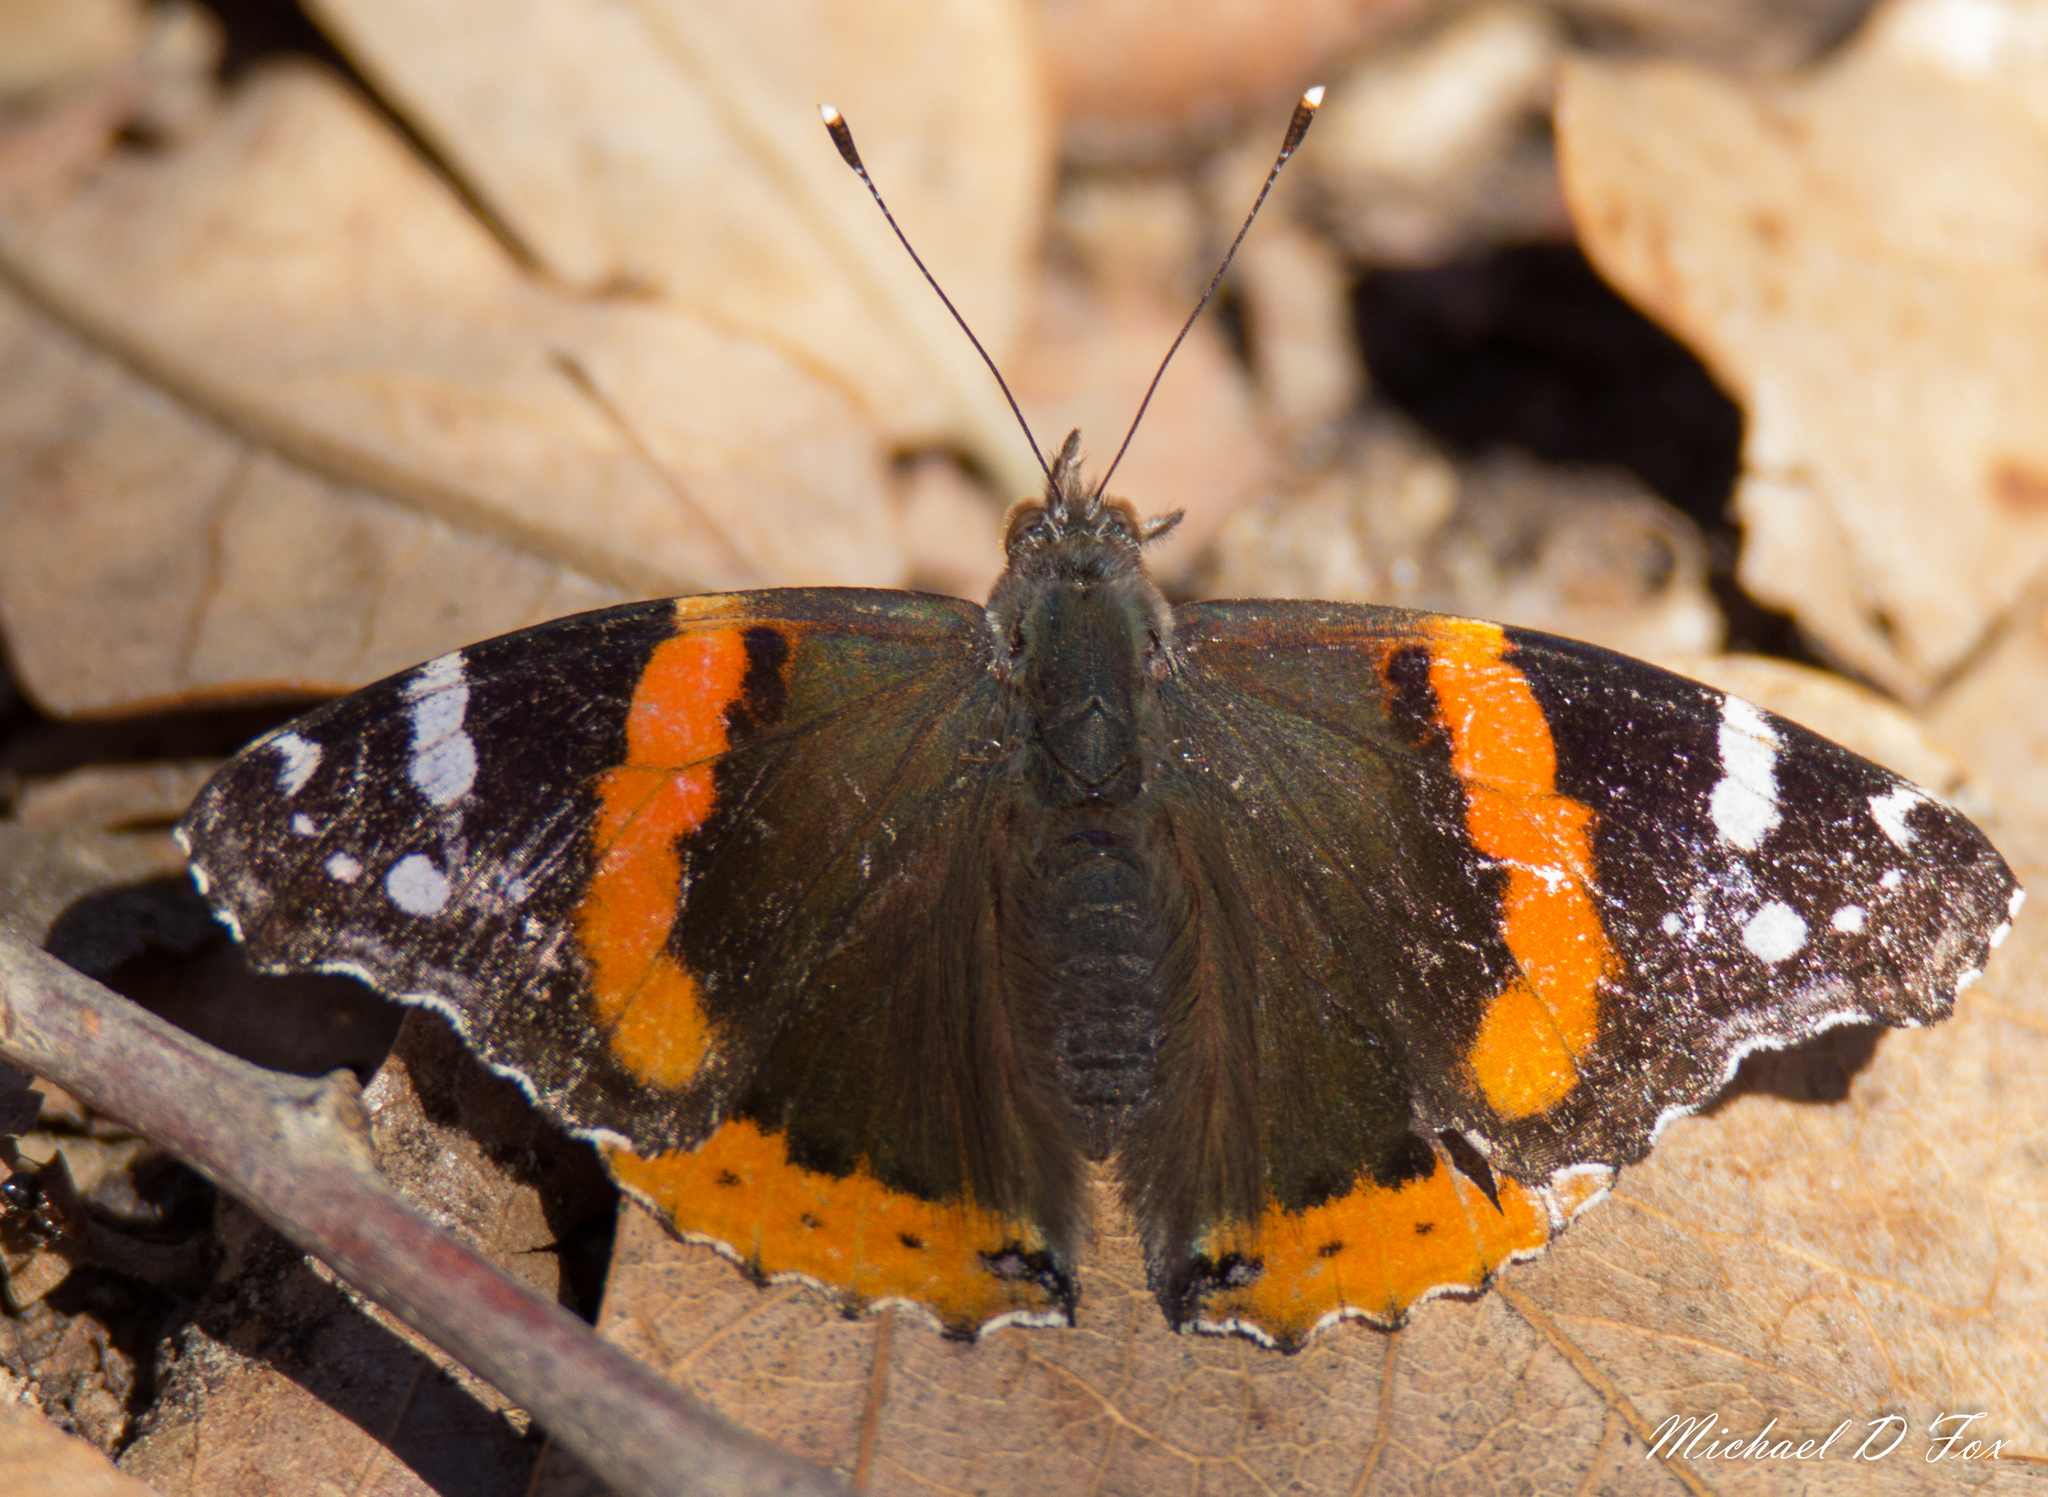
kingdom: Animalia
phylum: Arthropoda
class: Insecta
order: Lepidoptera
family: Nymphalidae
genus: Vanessa
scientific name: Vanessa atalanta
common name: Red admiral
